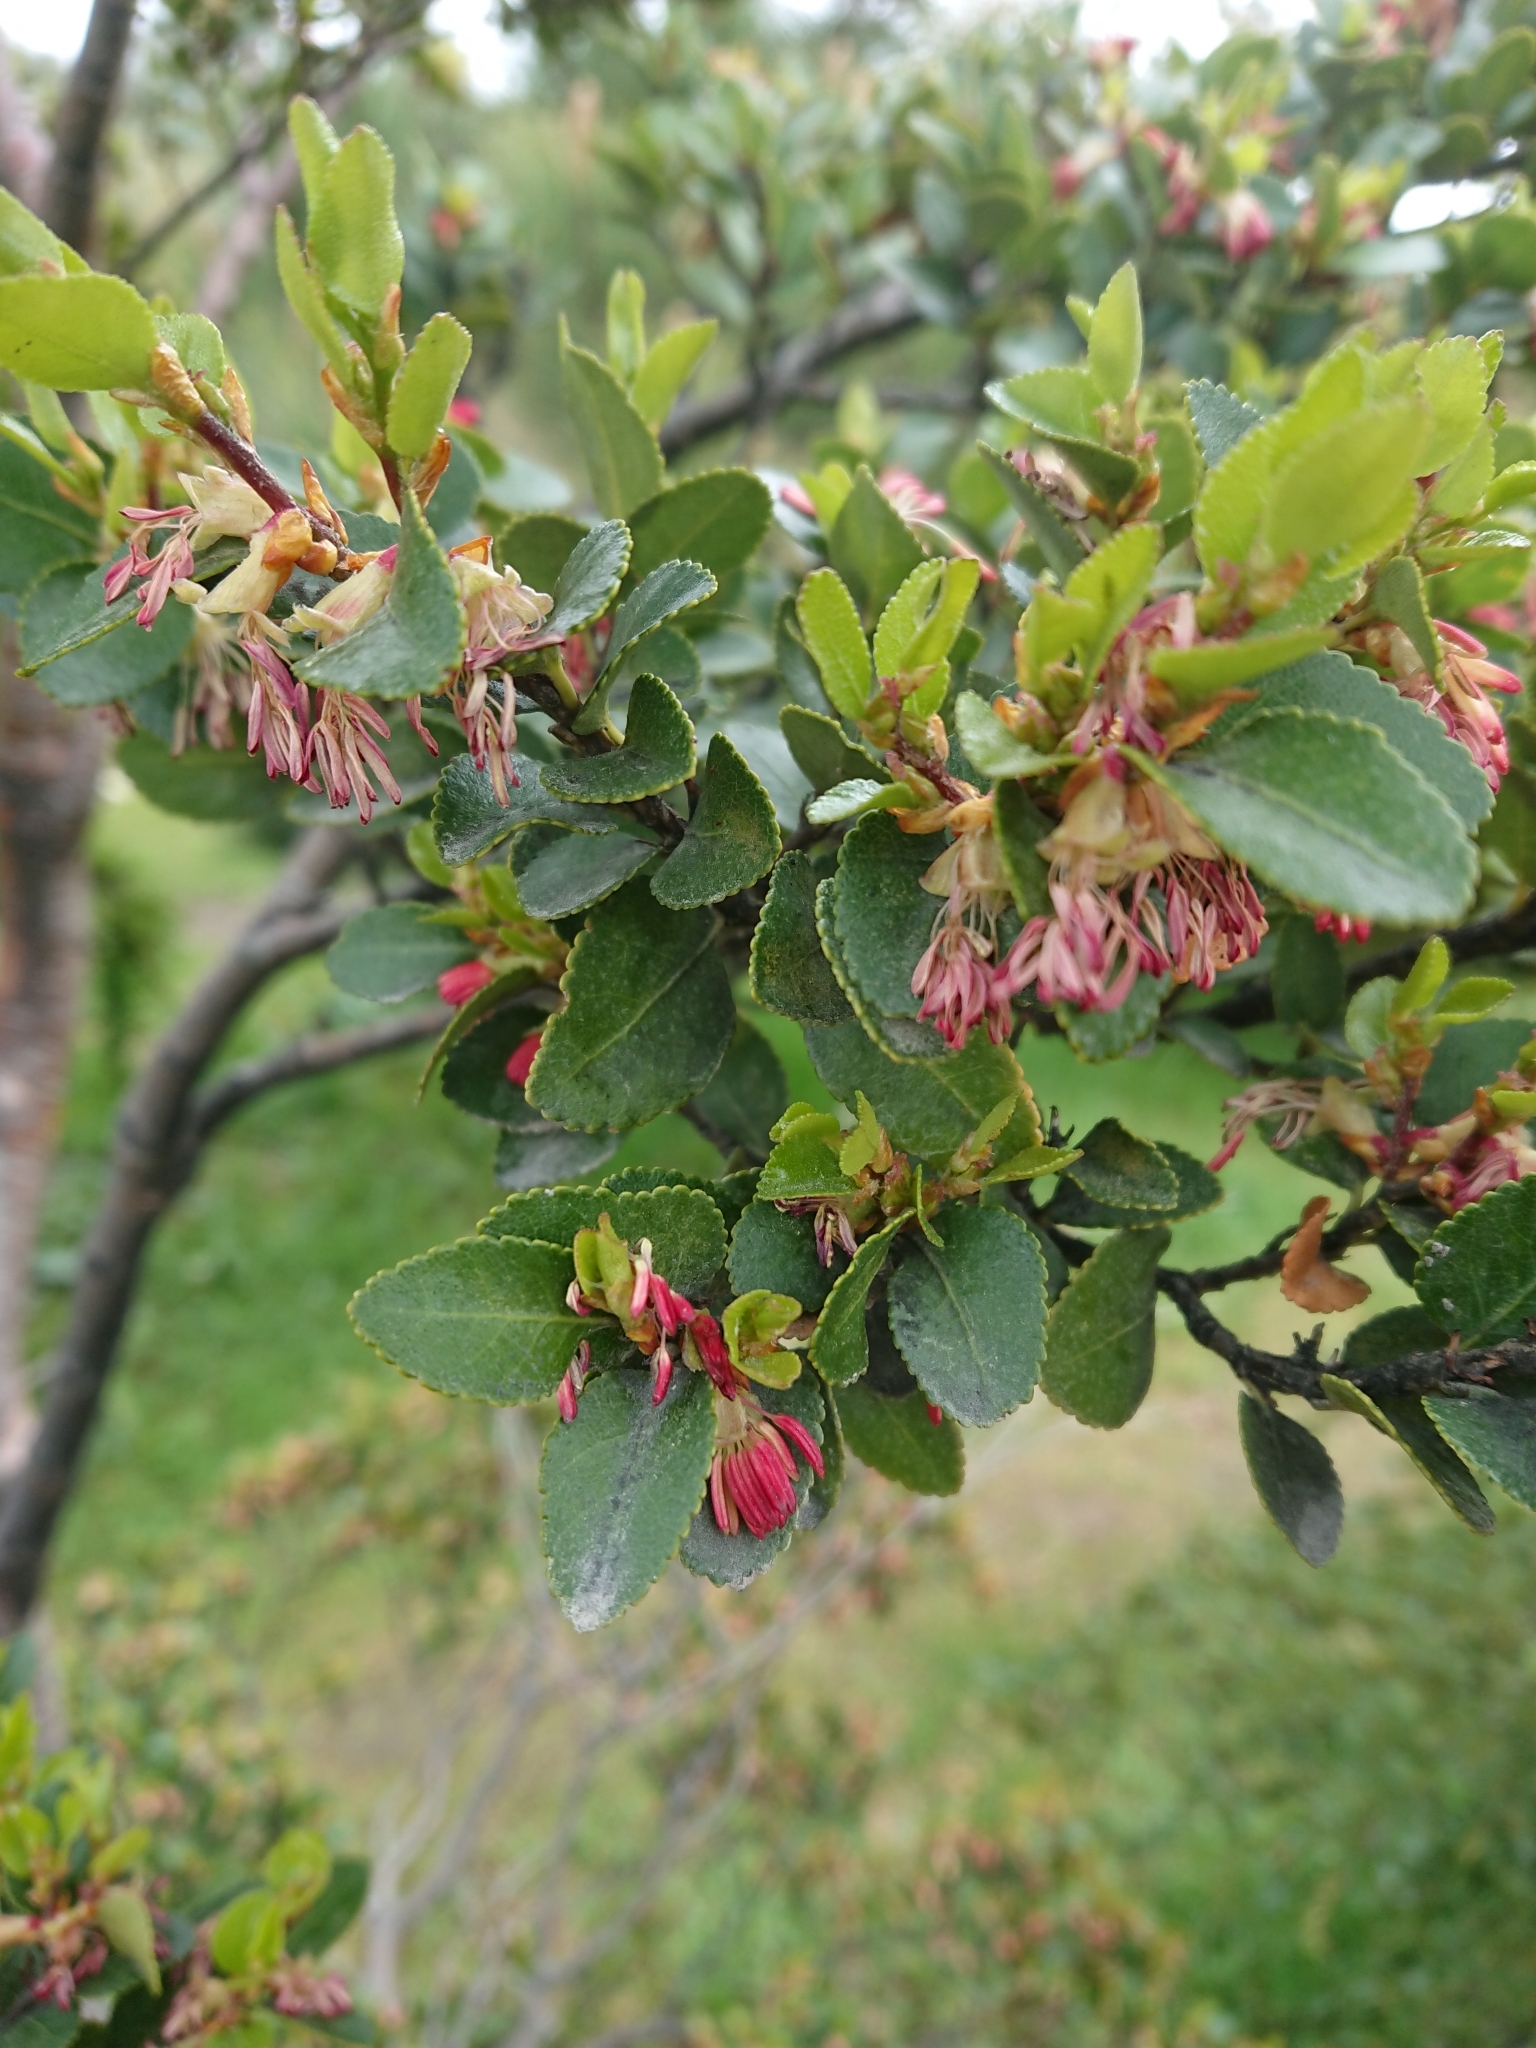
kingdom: Plantae
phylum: Tracheophyta
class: Magnoliopsida
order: Fagales
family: Nothofagaceae
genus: Nothofagus
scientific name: Nothofagus betuloides
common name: Magellan's beech
